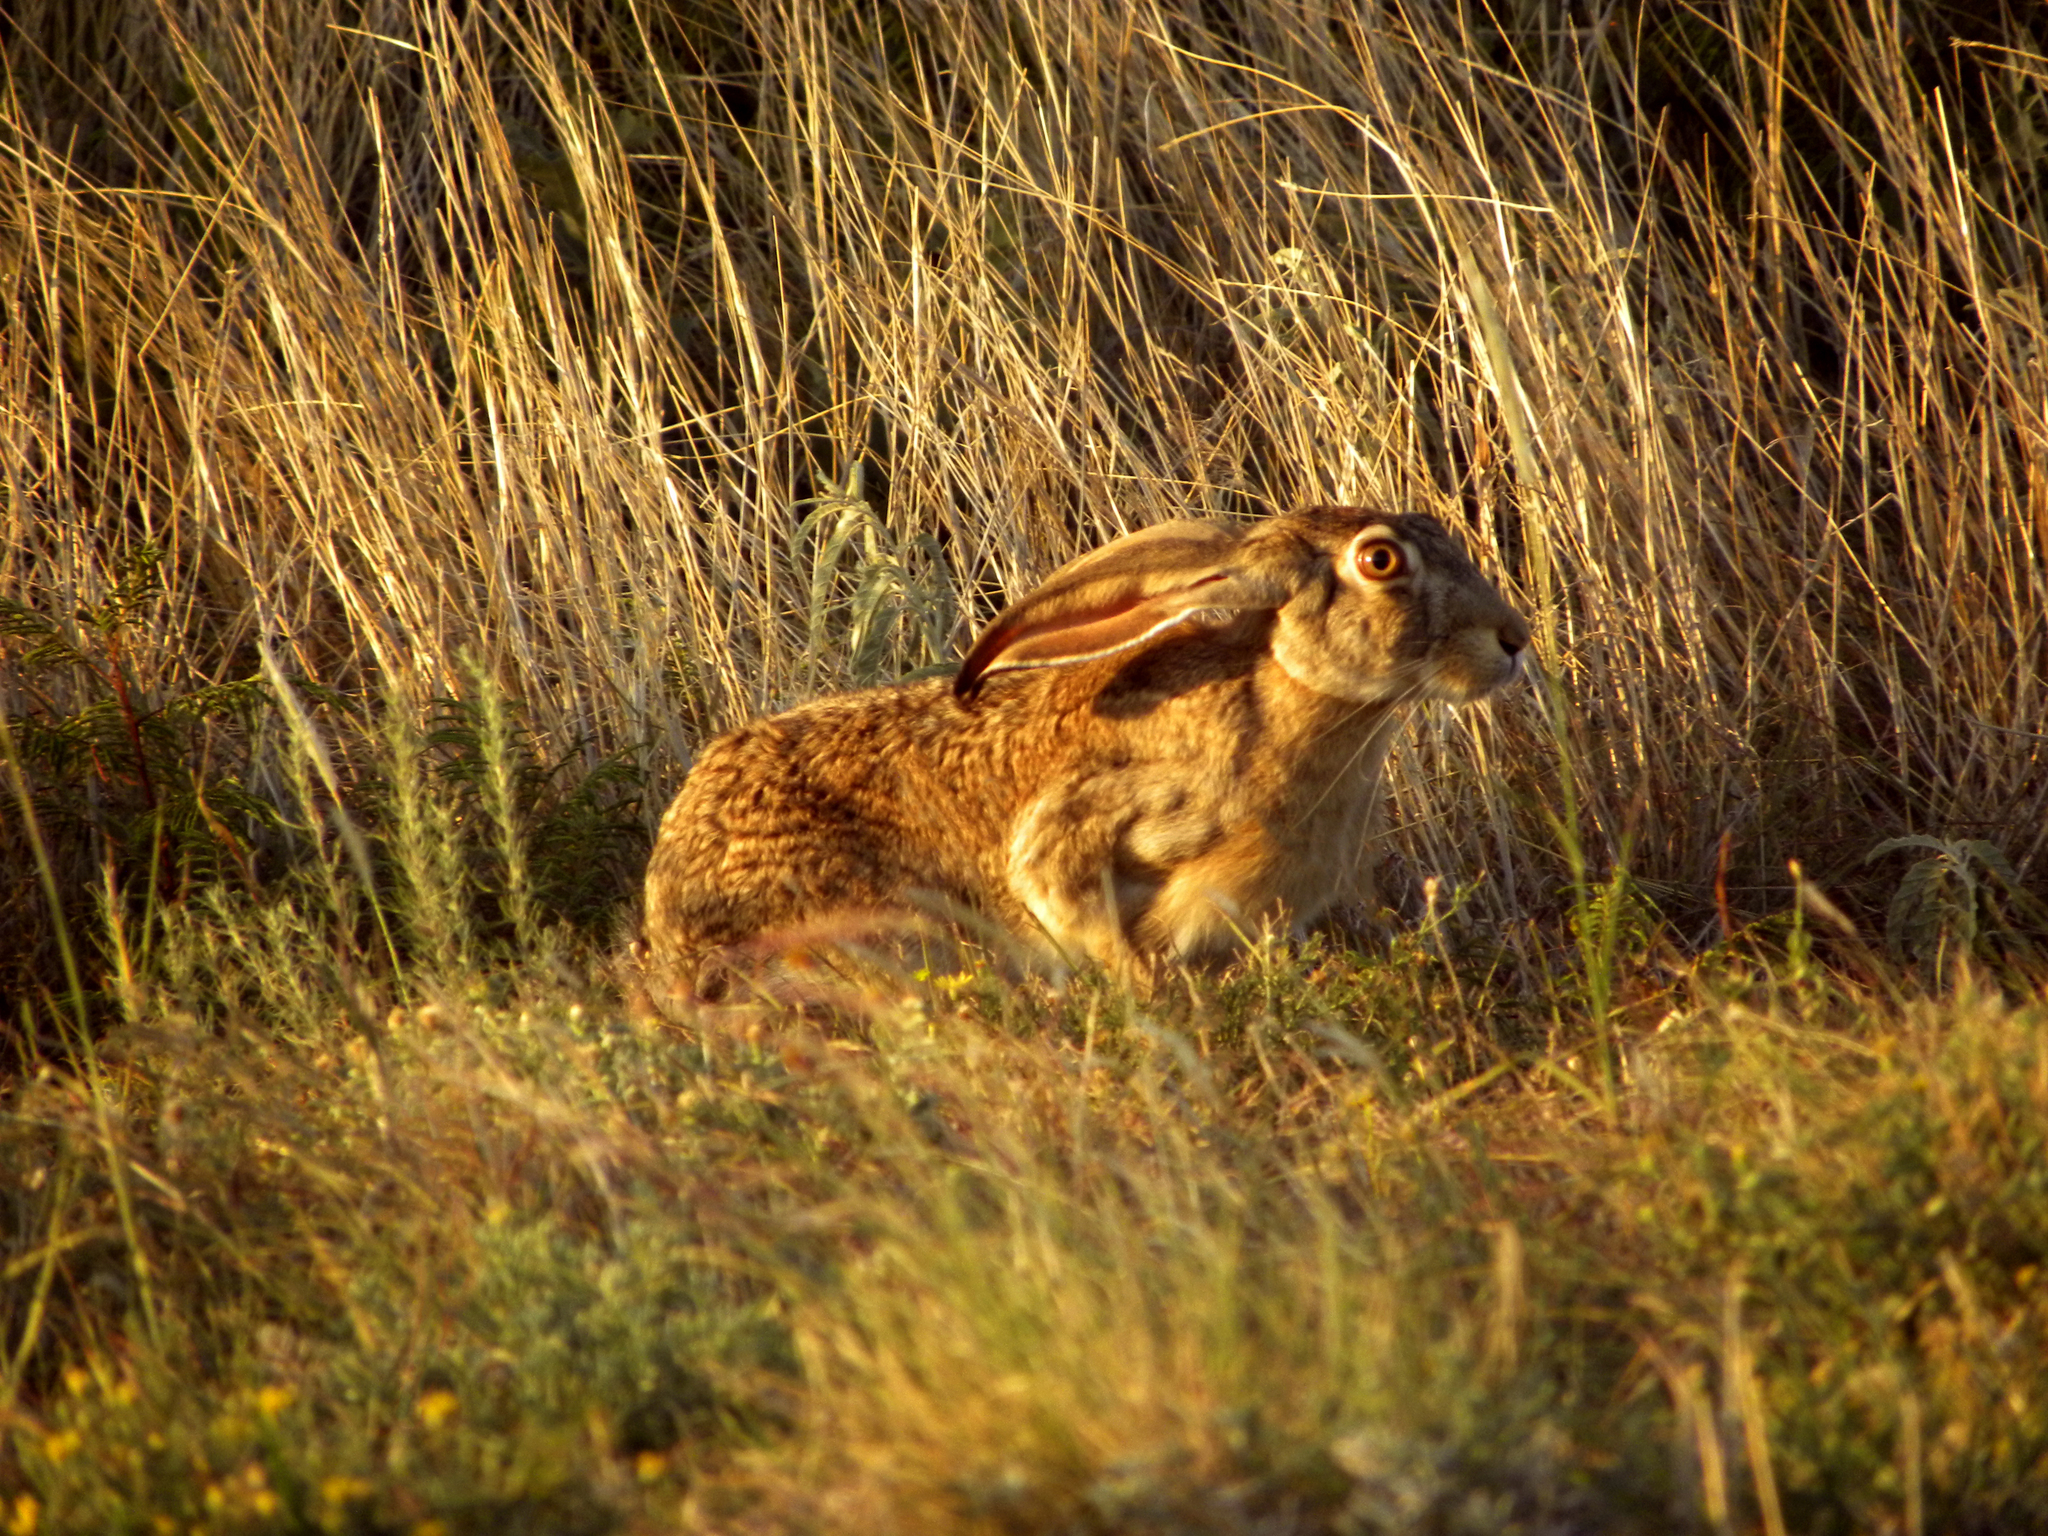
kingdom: Animalia
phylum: Chordata
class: Mammalia
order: Lagomorpha
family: Leporidae
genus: Lepus
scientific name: Lepus californicus
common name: Black-tailed jackrabbit
